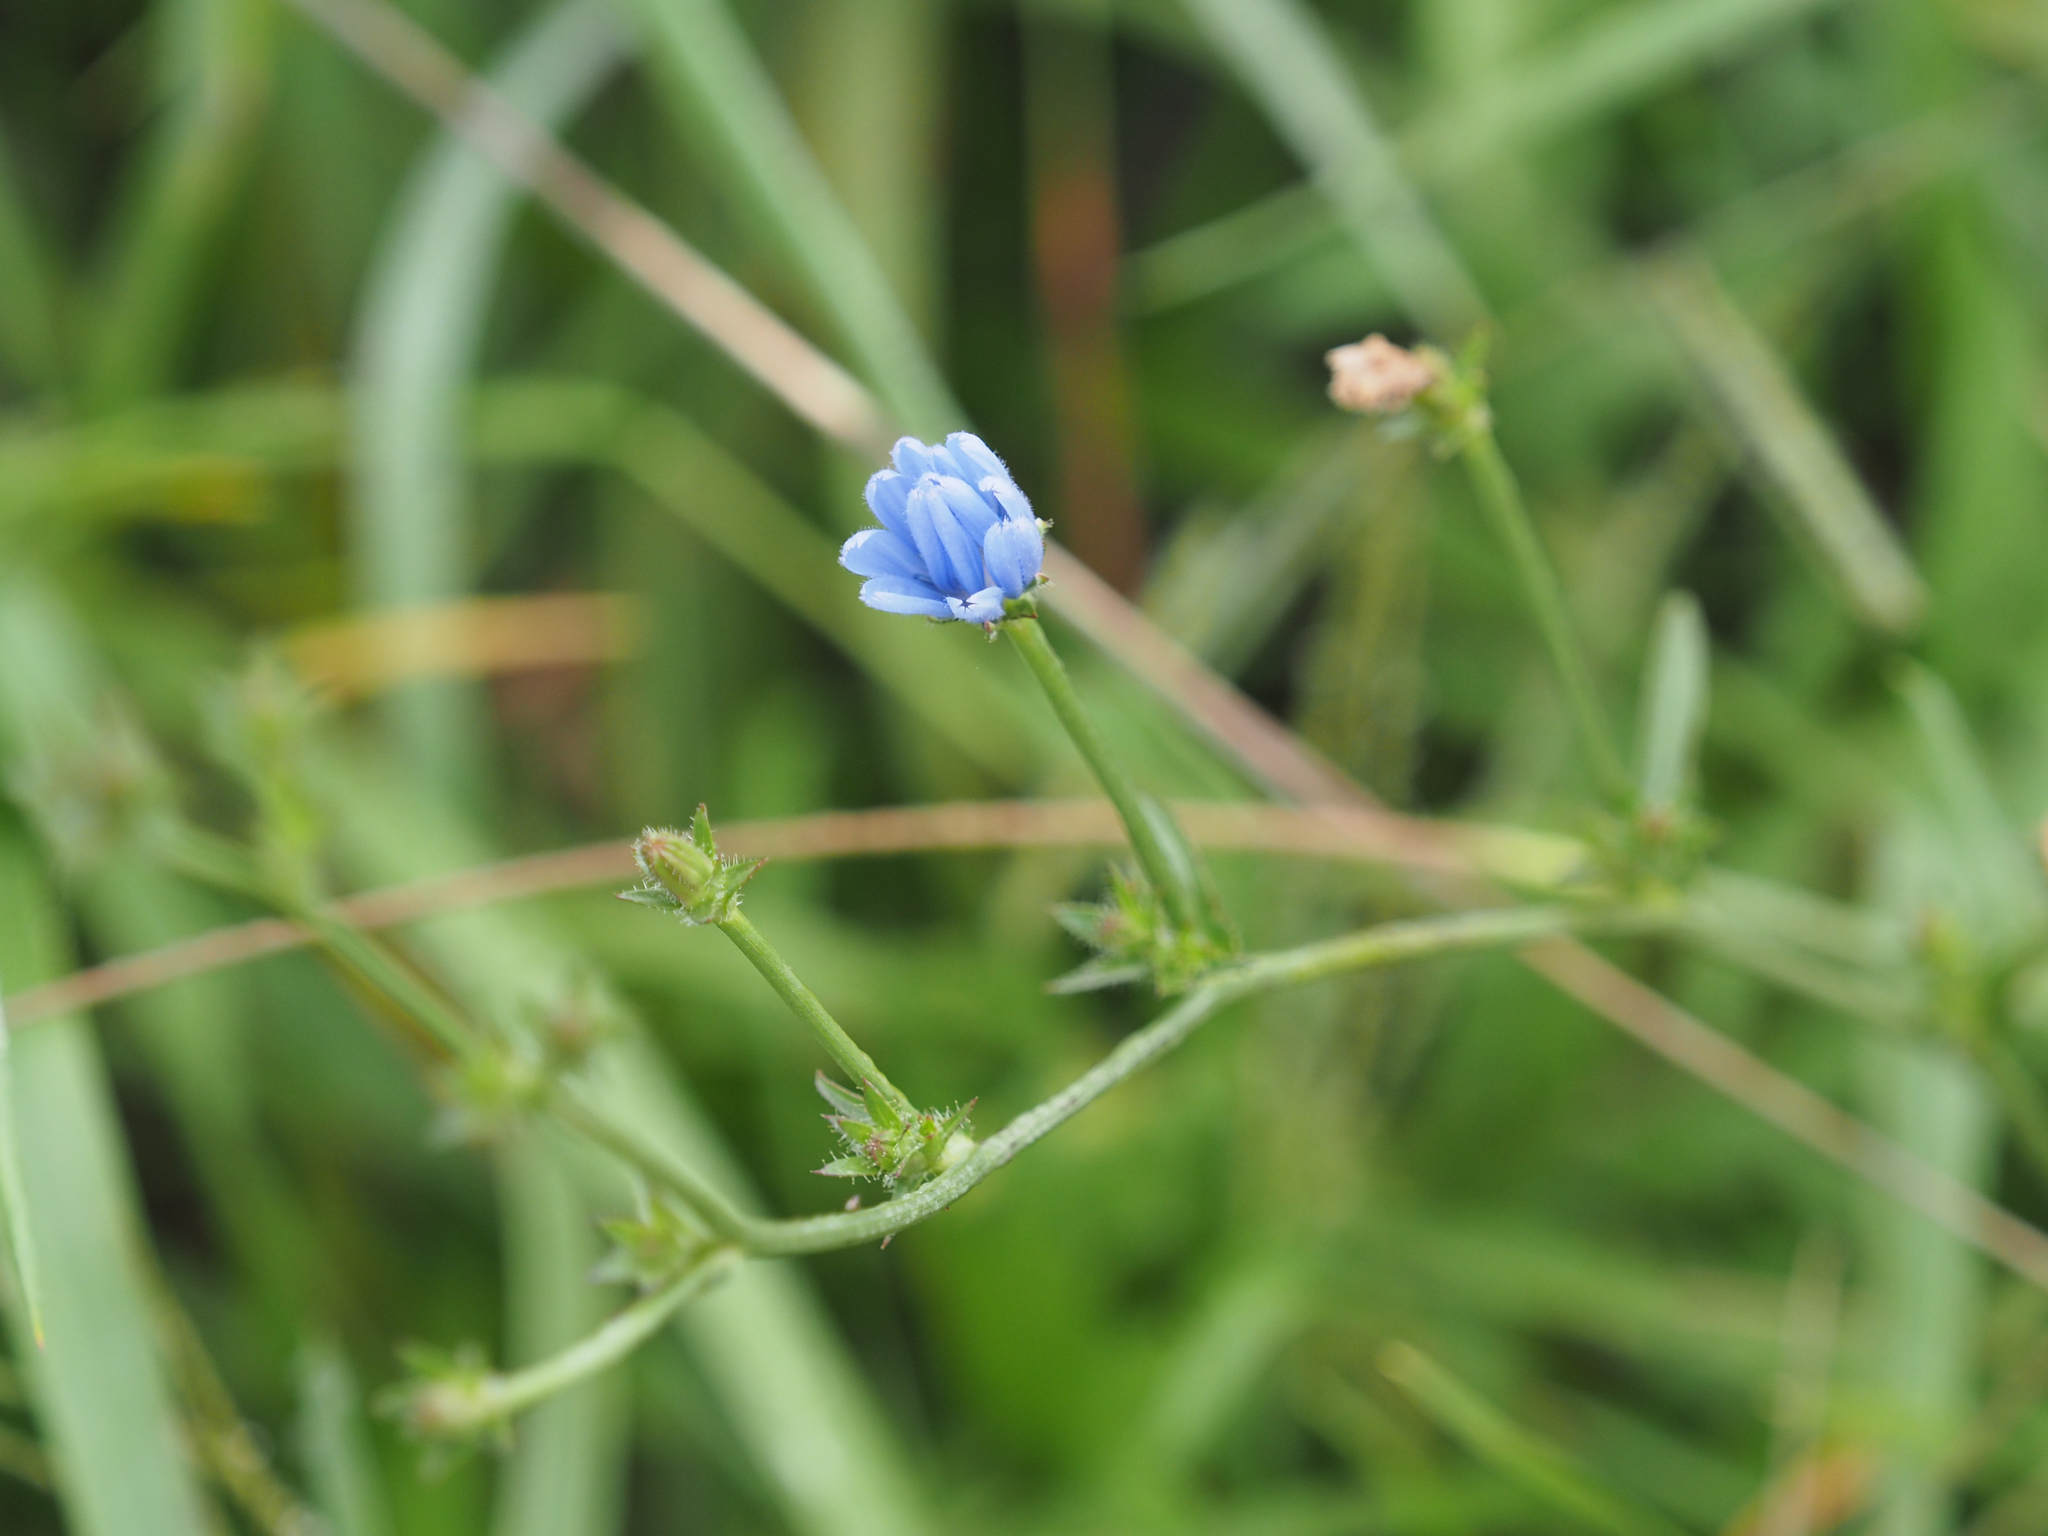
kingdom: Plantae
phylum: Tracheophyta
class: Magnoliopsida
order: Asterales
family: Asteraceae
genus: Cichorium
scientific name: Cichorium intybus
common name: Chicory
